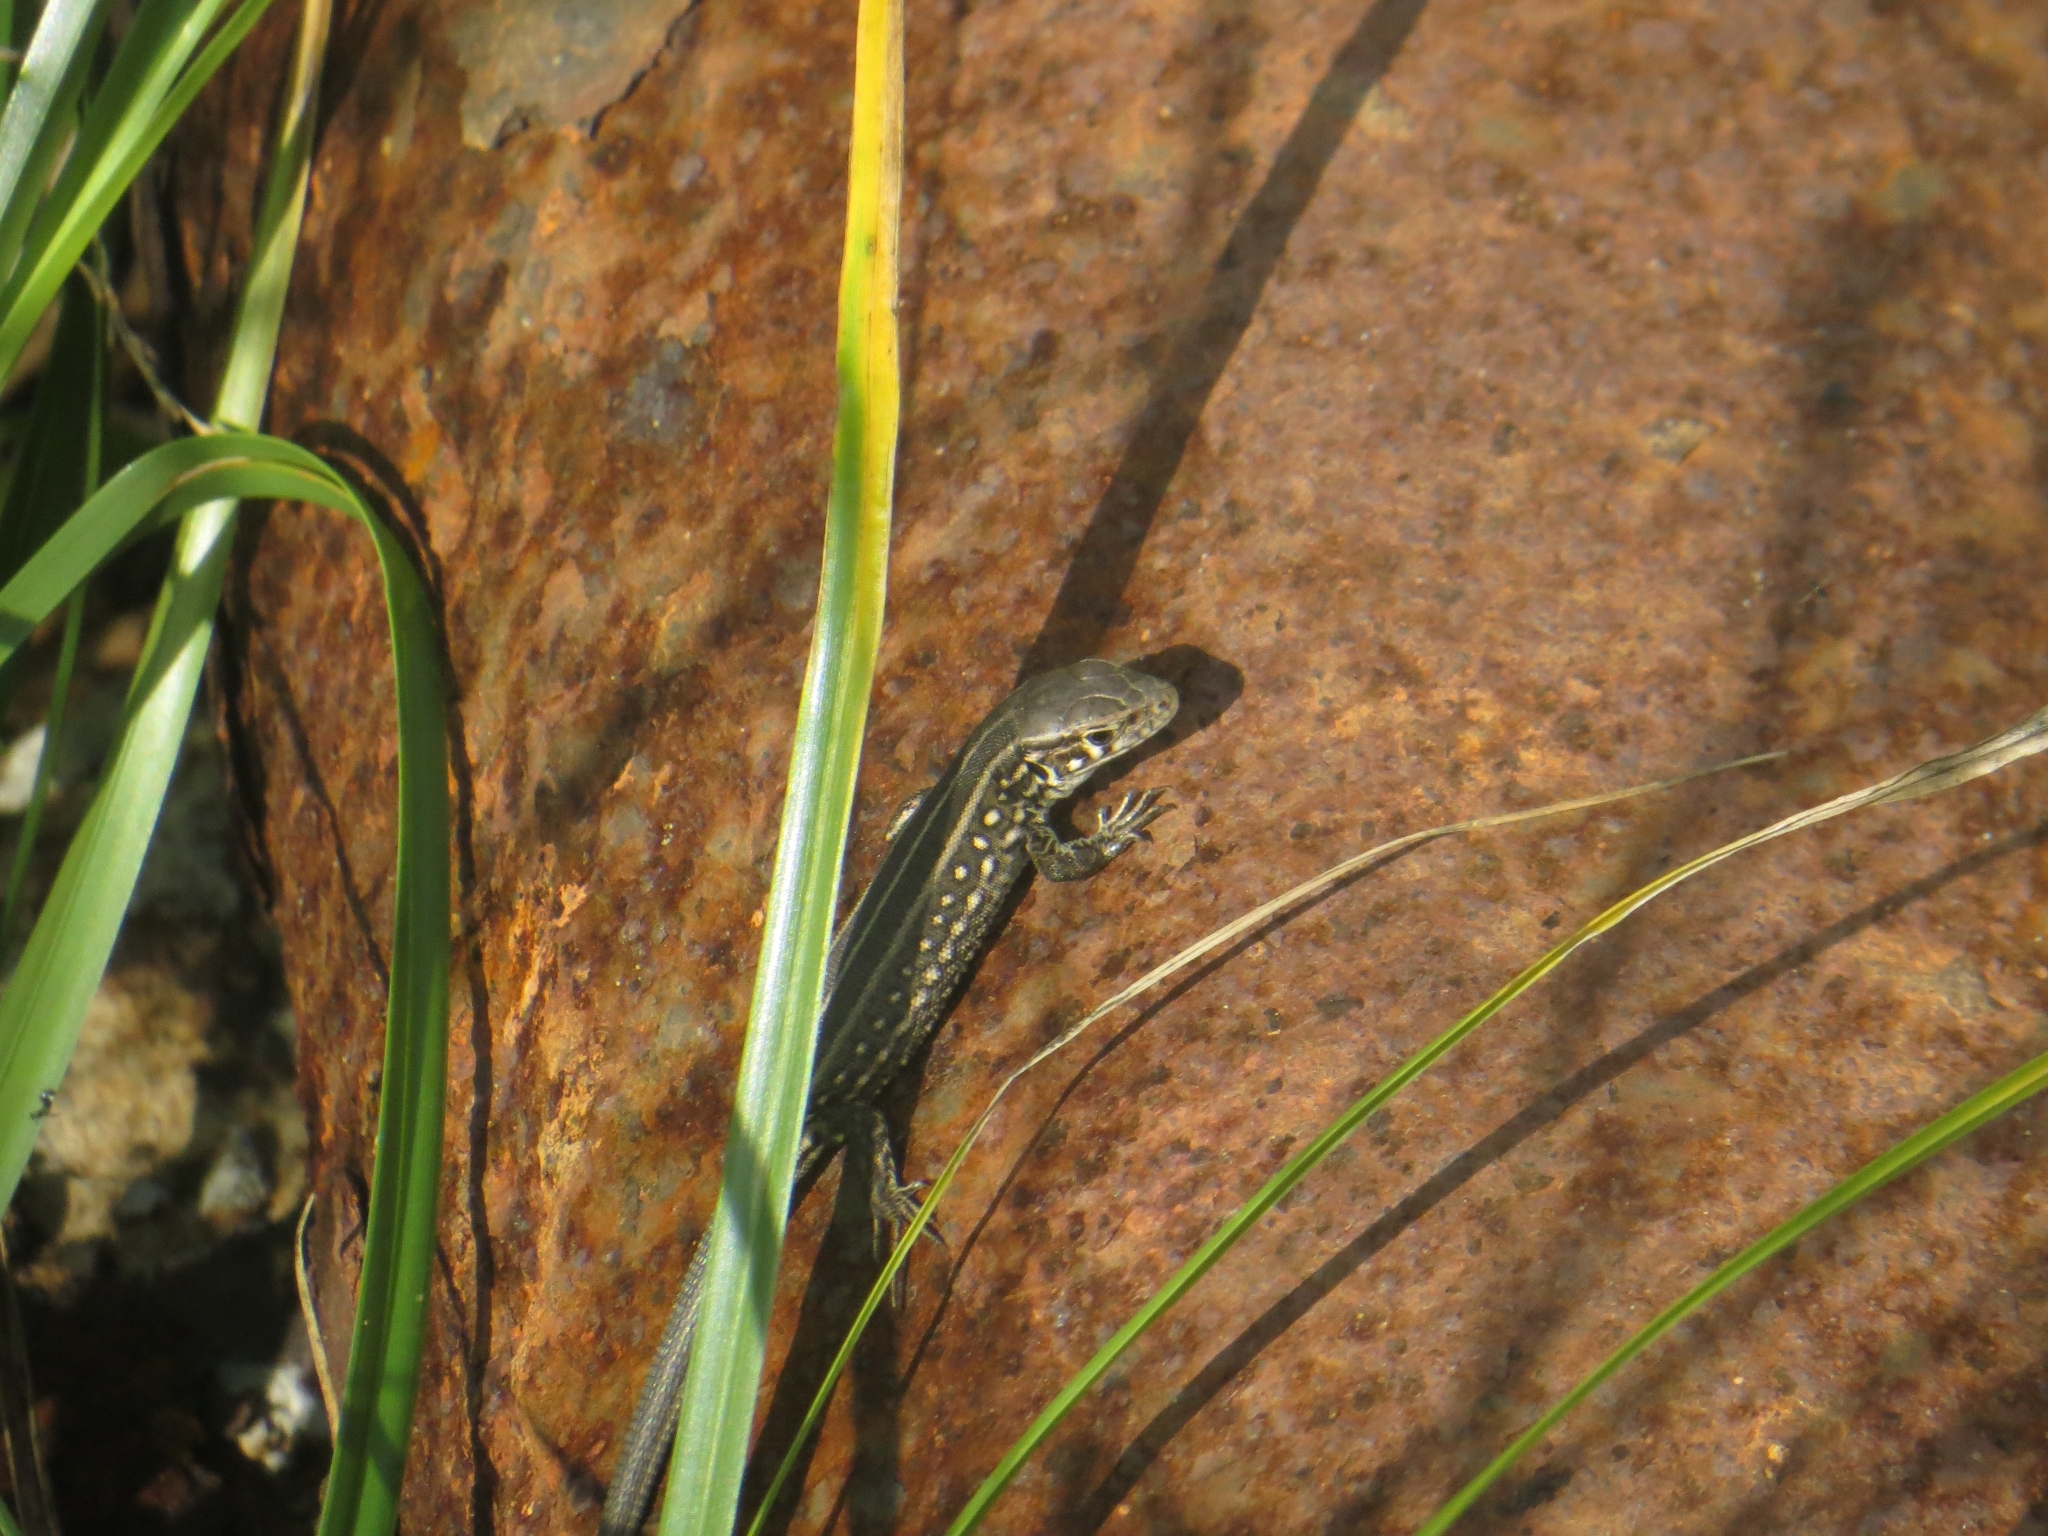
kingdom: Animalia
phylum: Chordata
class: Squamata
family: Lacertidae
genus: Lacerta
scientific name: Lacerta agilis
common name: Sand lizard
